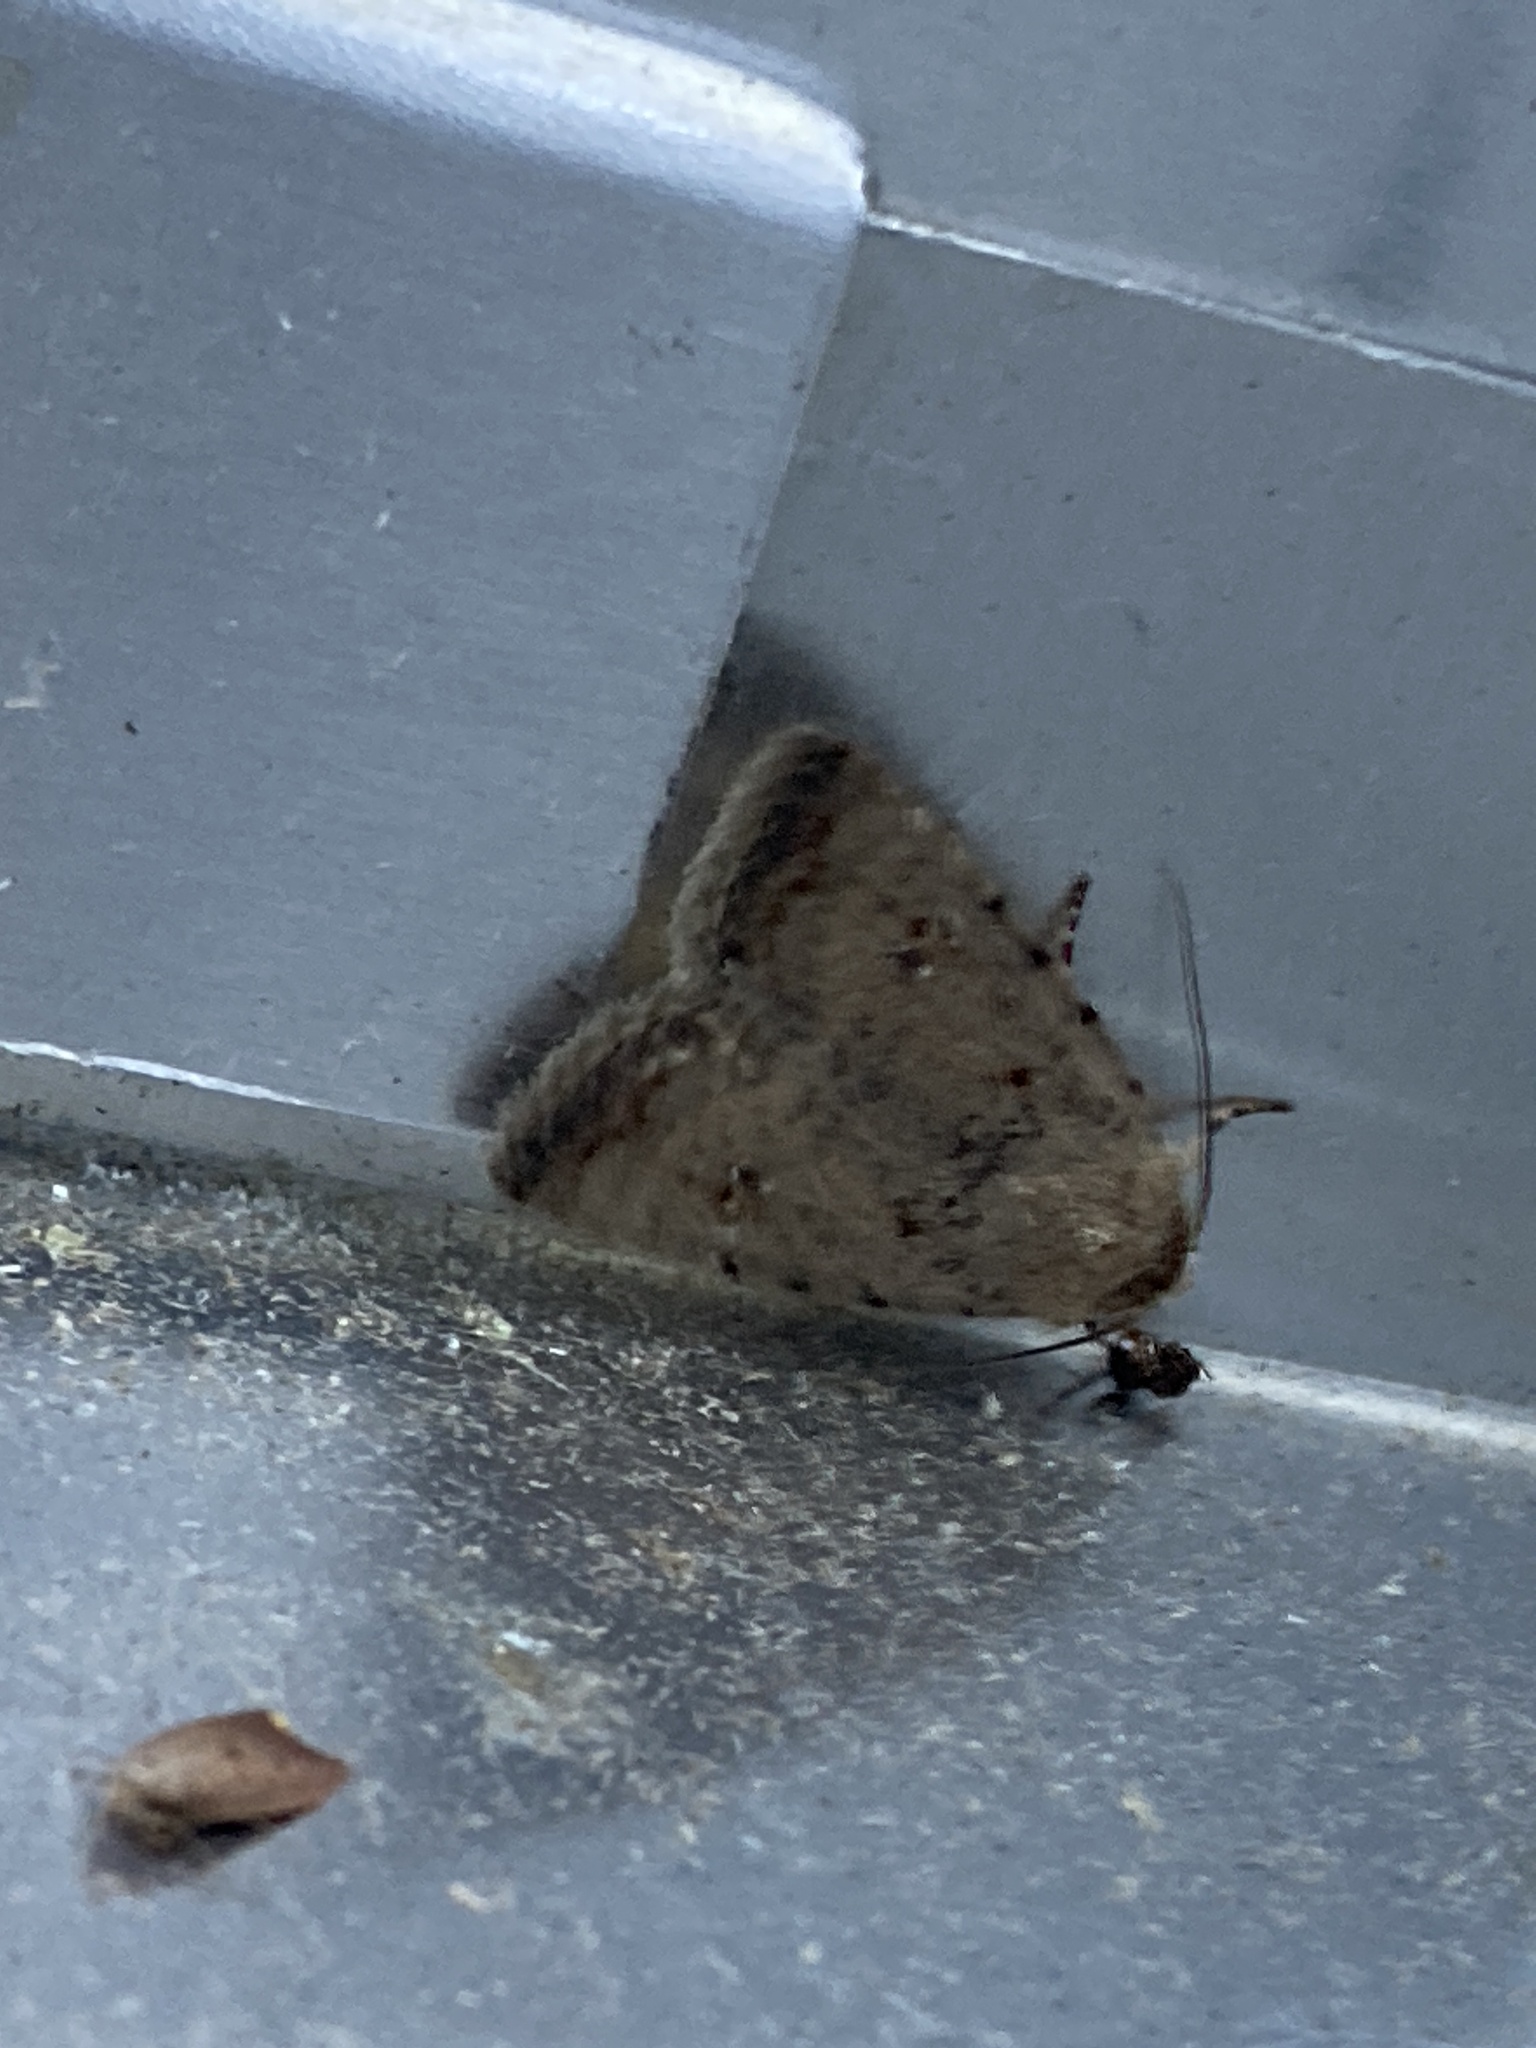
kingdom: Animalia
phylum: Arthropoda
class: Insecta
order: Lepidoptera
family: Noctuidae
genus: Caradrina
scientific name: Caradrina clavipalpis
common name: Pale mottled willow
